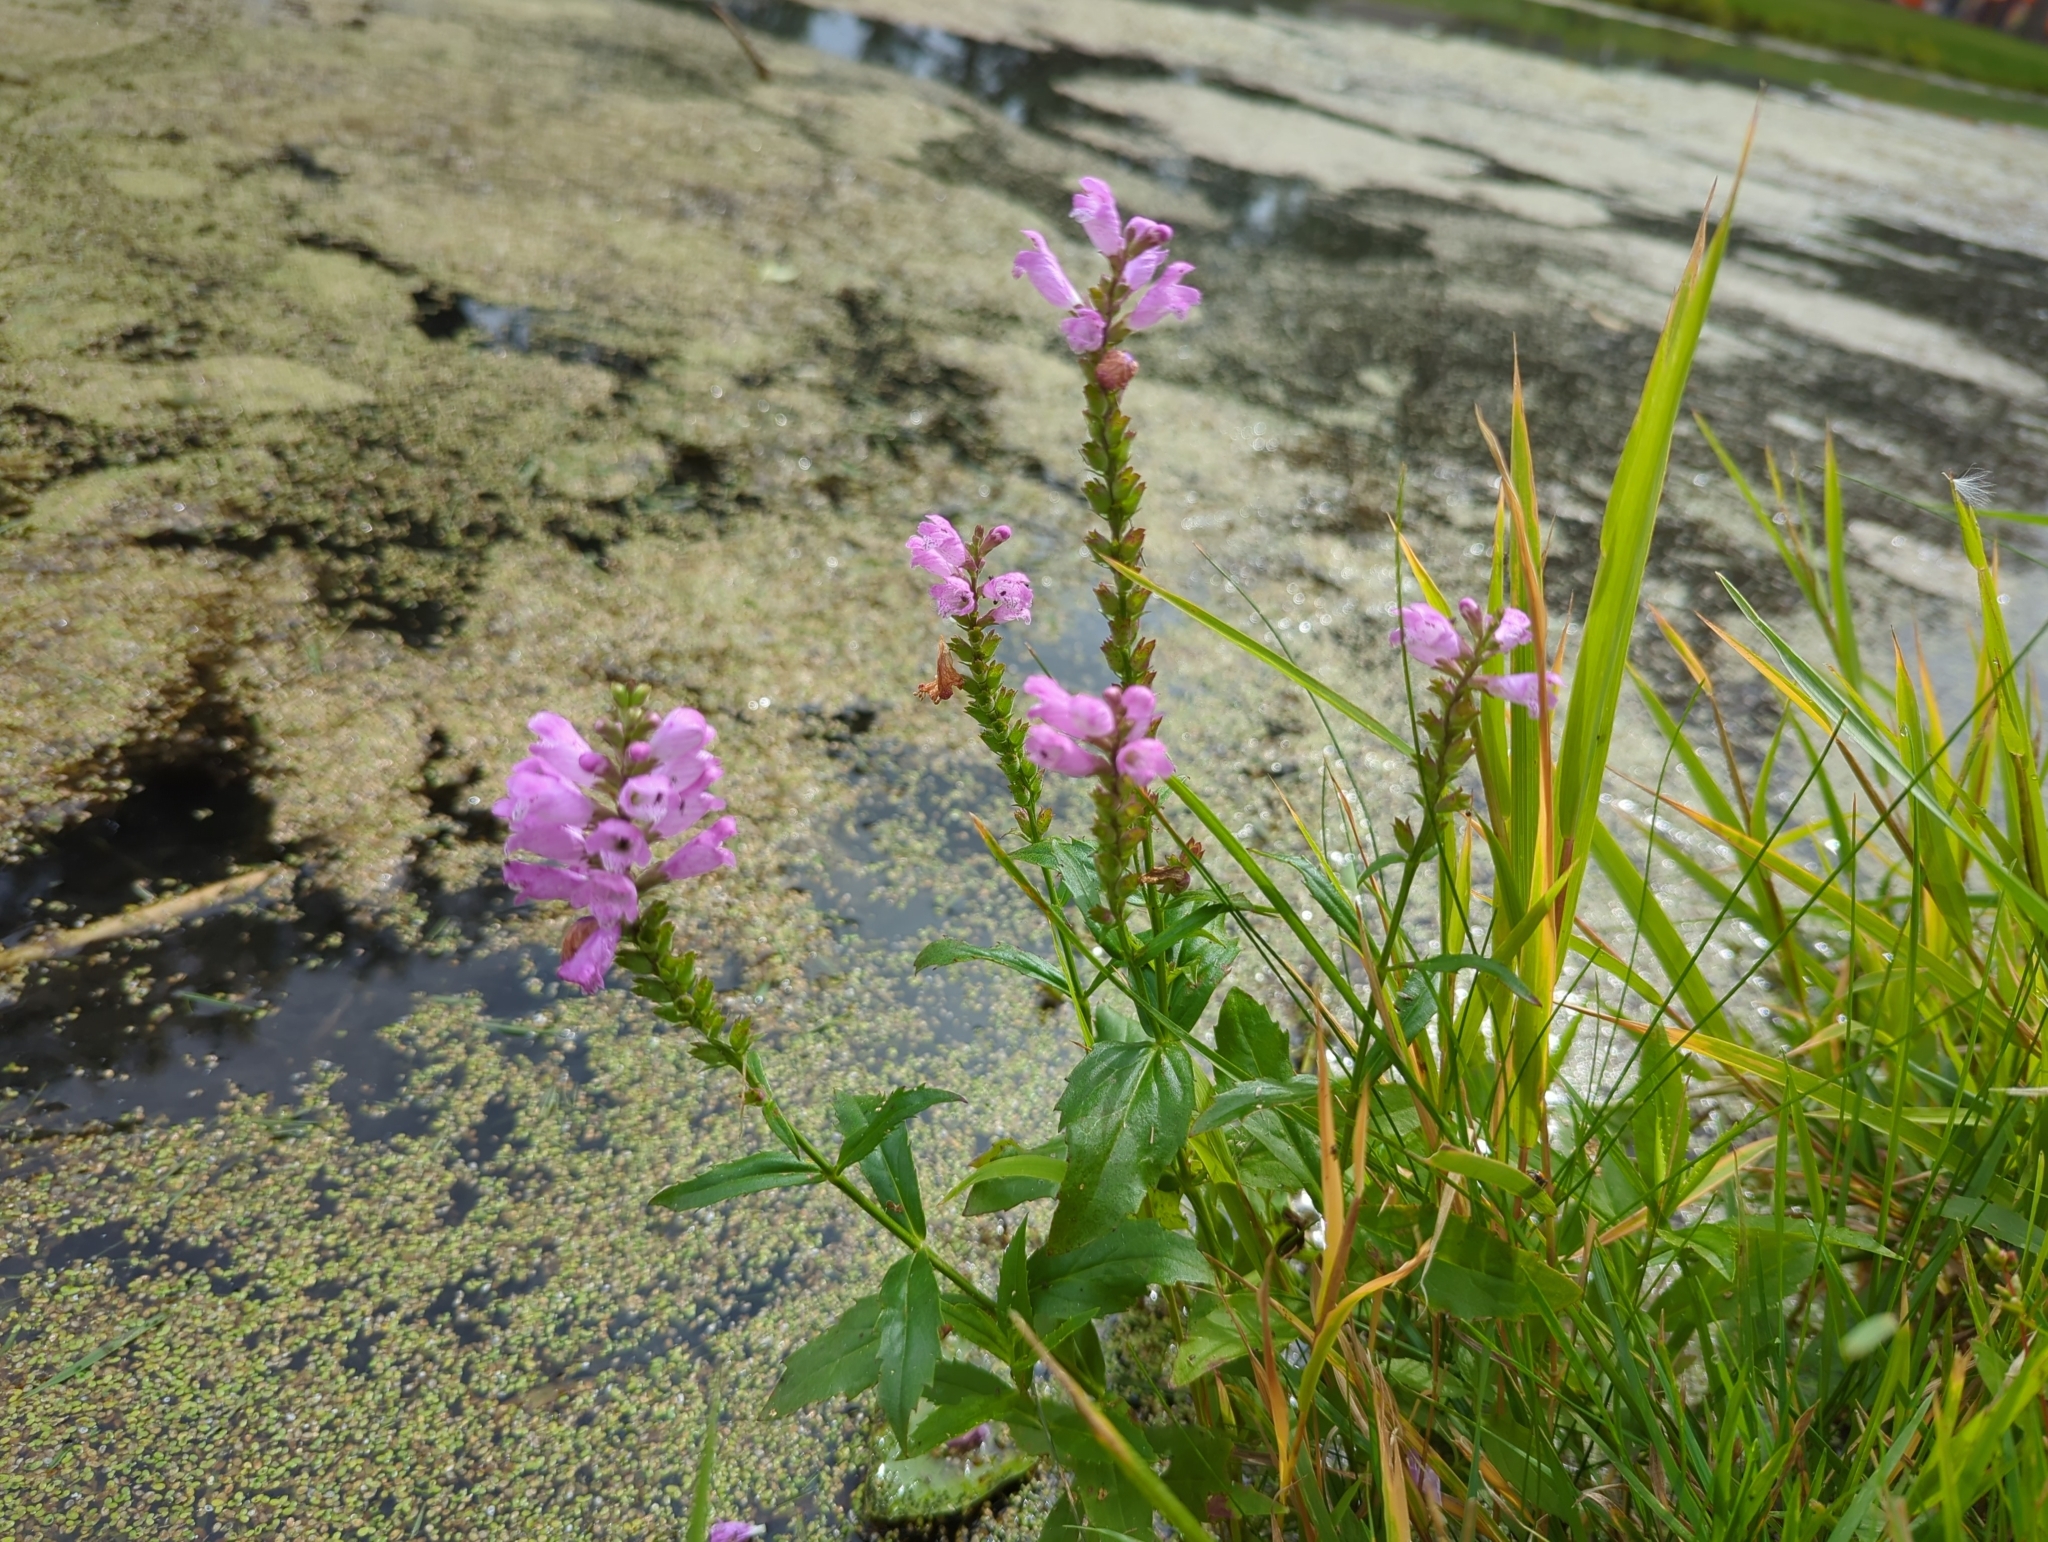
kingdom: Plantae
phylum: Tracheophyta
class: Magnoliopsida
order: Lamiales
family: Lamiaceae
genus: Physostegia
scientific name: Physostegia virginiana
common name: Obedient-plant
